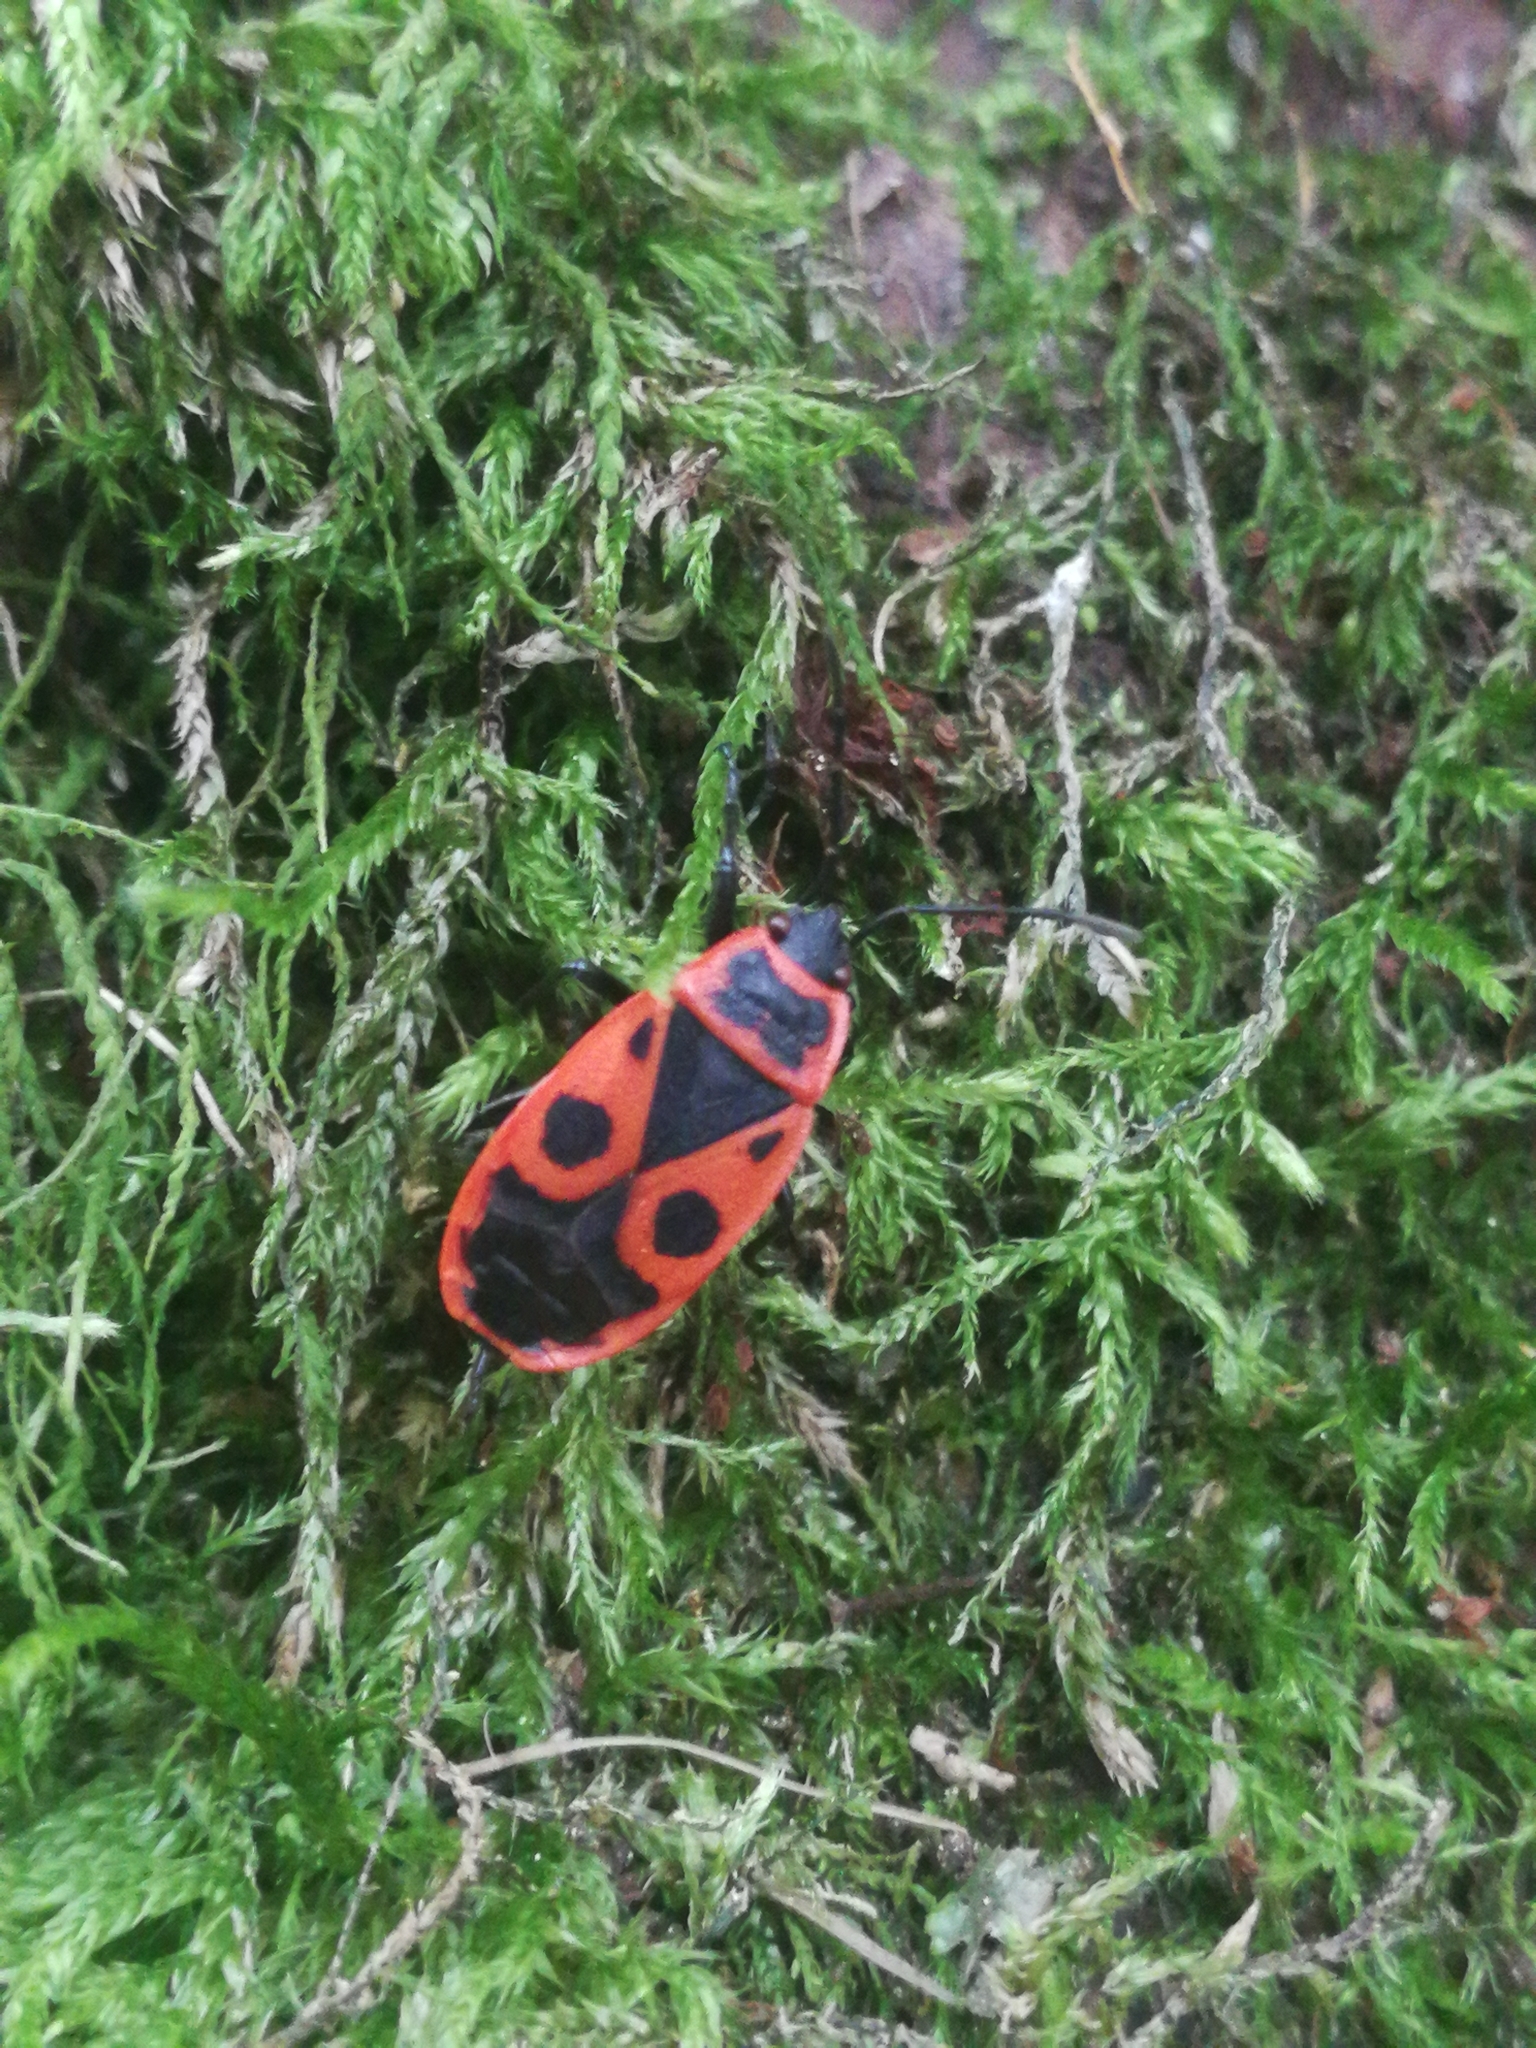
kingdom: Animalia
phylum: Arthropoda
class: Insecta
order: Hemiptera
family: Pyrrhocoridae
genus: Pyrrhocoris
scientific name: Pyrrhocoris apterus
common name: Firebug
